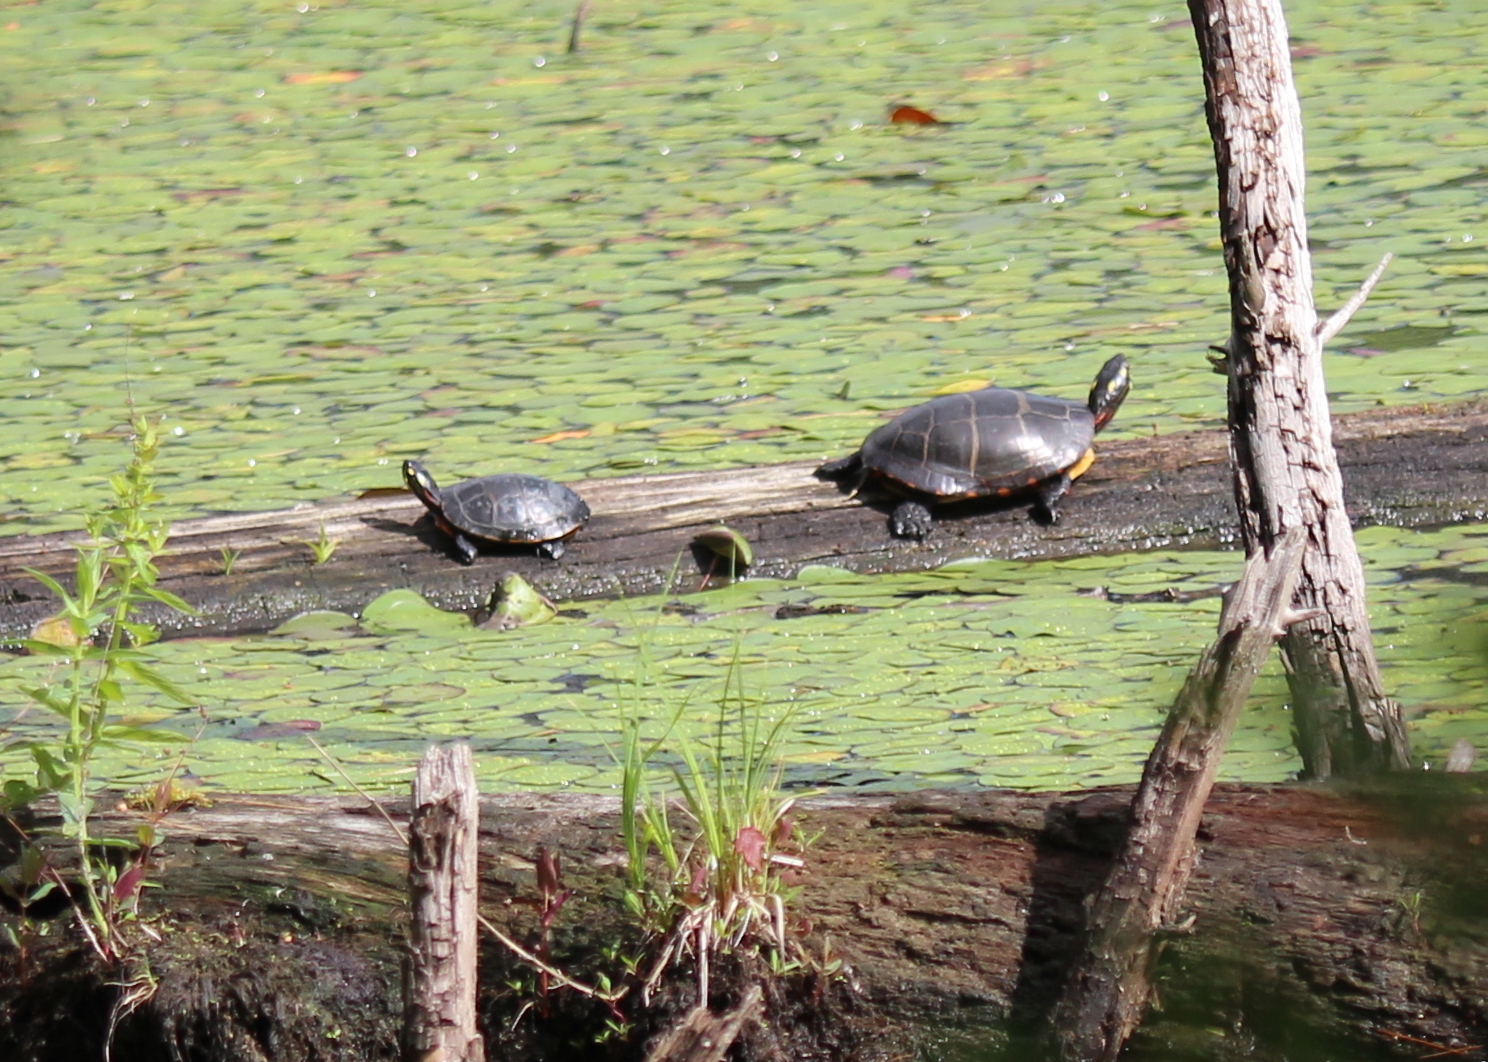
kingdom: Animalia
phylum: Chordata
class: Testudines
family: Emydidae
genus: Chrysemys
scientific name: Chrysemys picta
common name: Painted turtle
